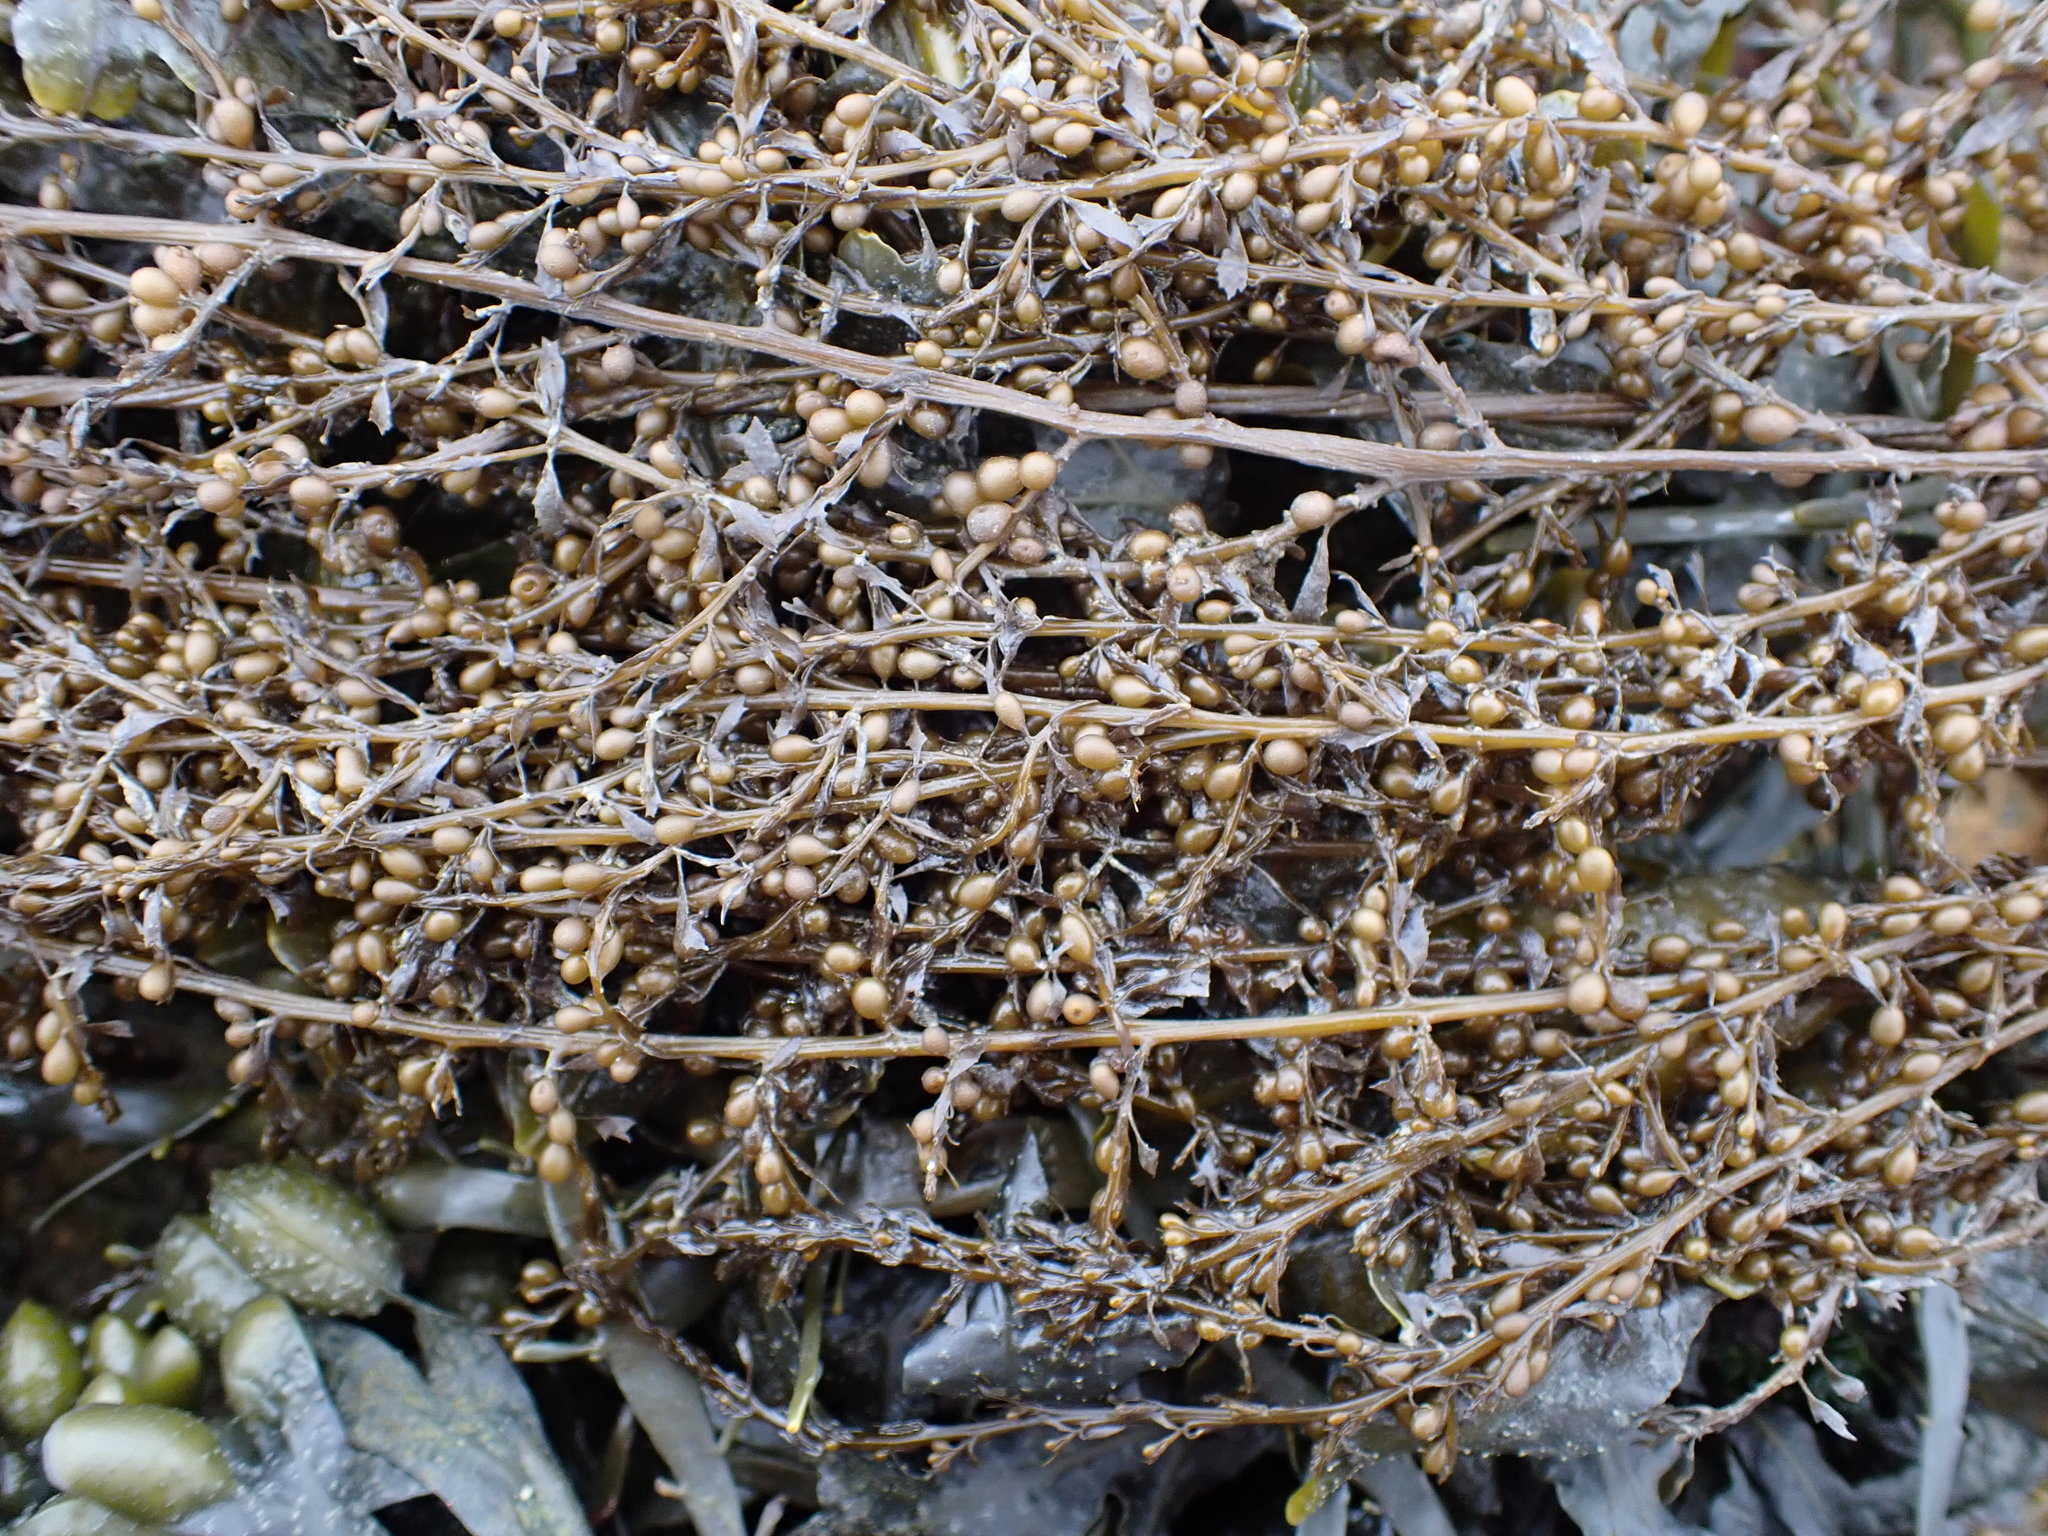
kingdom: Chromista
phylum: Ochrophyta
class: Phaeophyceae
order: Fucales
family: Sargassaceae
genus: Sargassum
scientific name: Sargassum muticum
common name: Japweed
